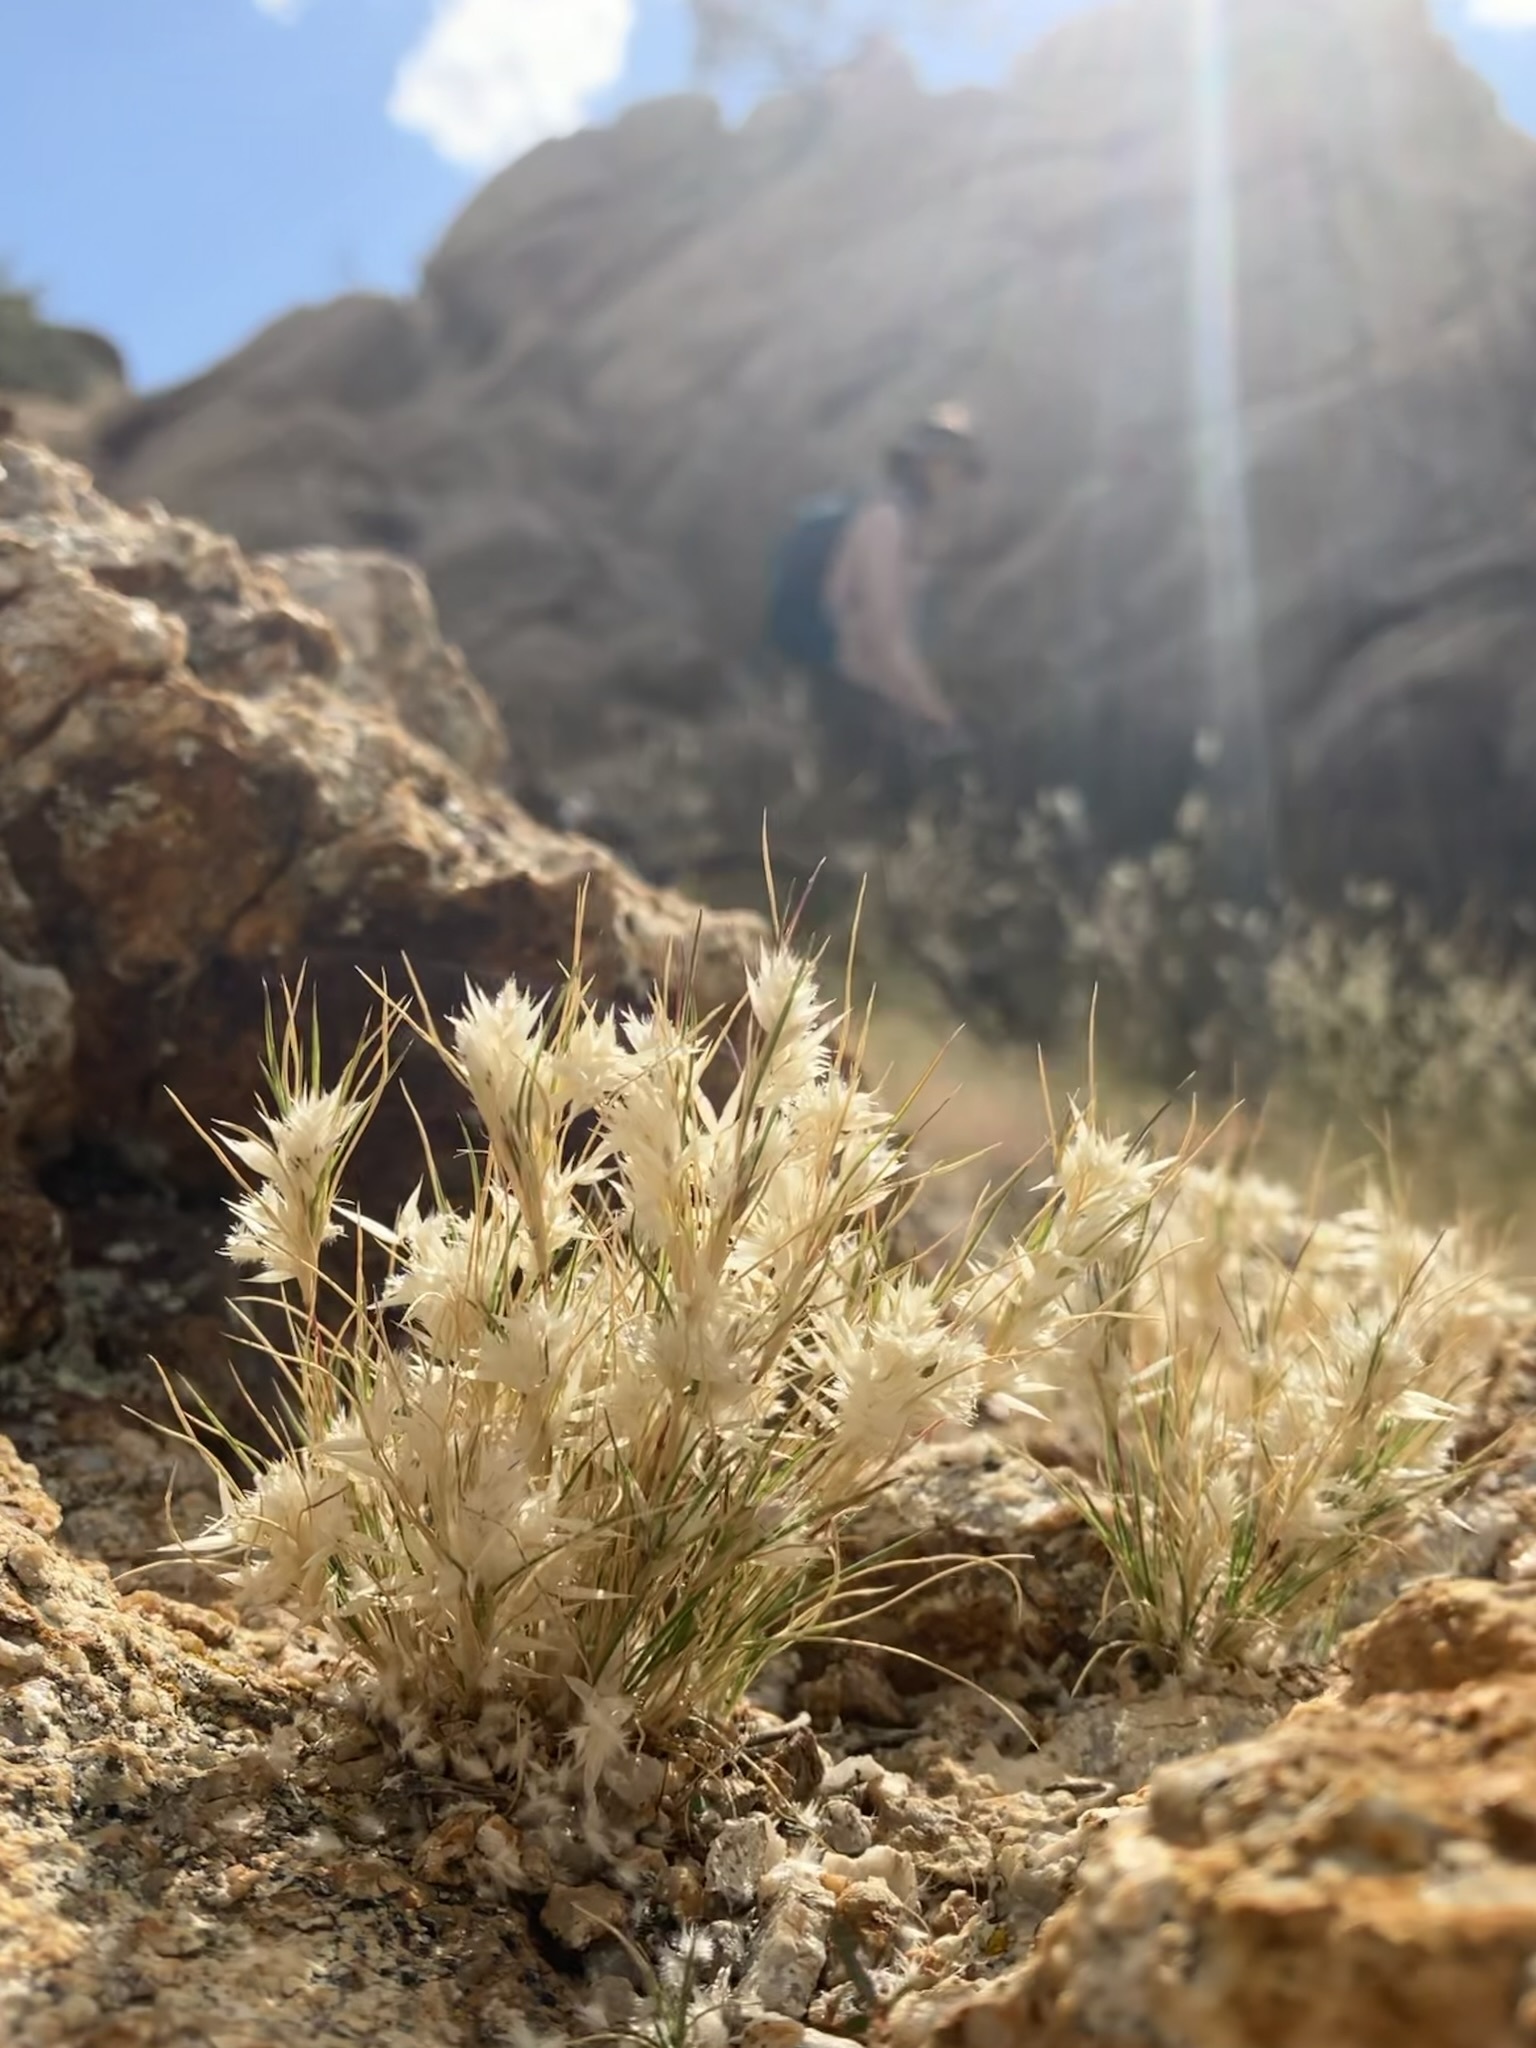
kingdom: Plantae
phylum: Tracheophyta
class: Liliopsida
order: Poales
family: Poaceae
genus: Dasyochloa
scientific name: Dasyochloa pulchella
